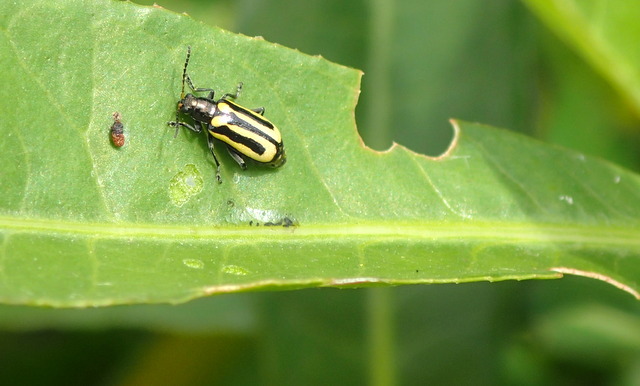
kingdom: Animalia
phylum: Arthropoda
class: Insecta
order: Coleoptera
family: Chrysomelidae
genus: Agasicles
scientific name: Agasicles hygrophila
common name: Alligatorweed flea beetle
